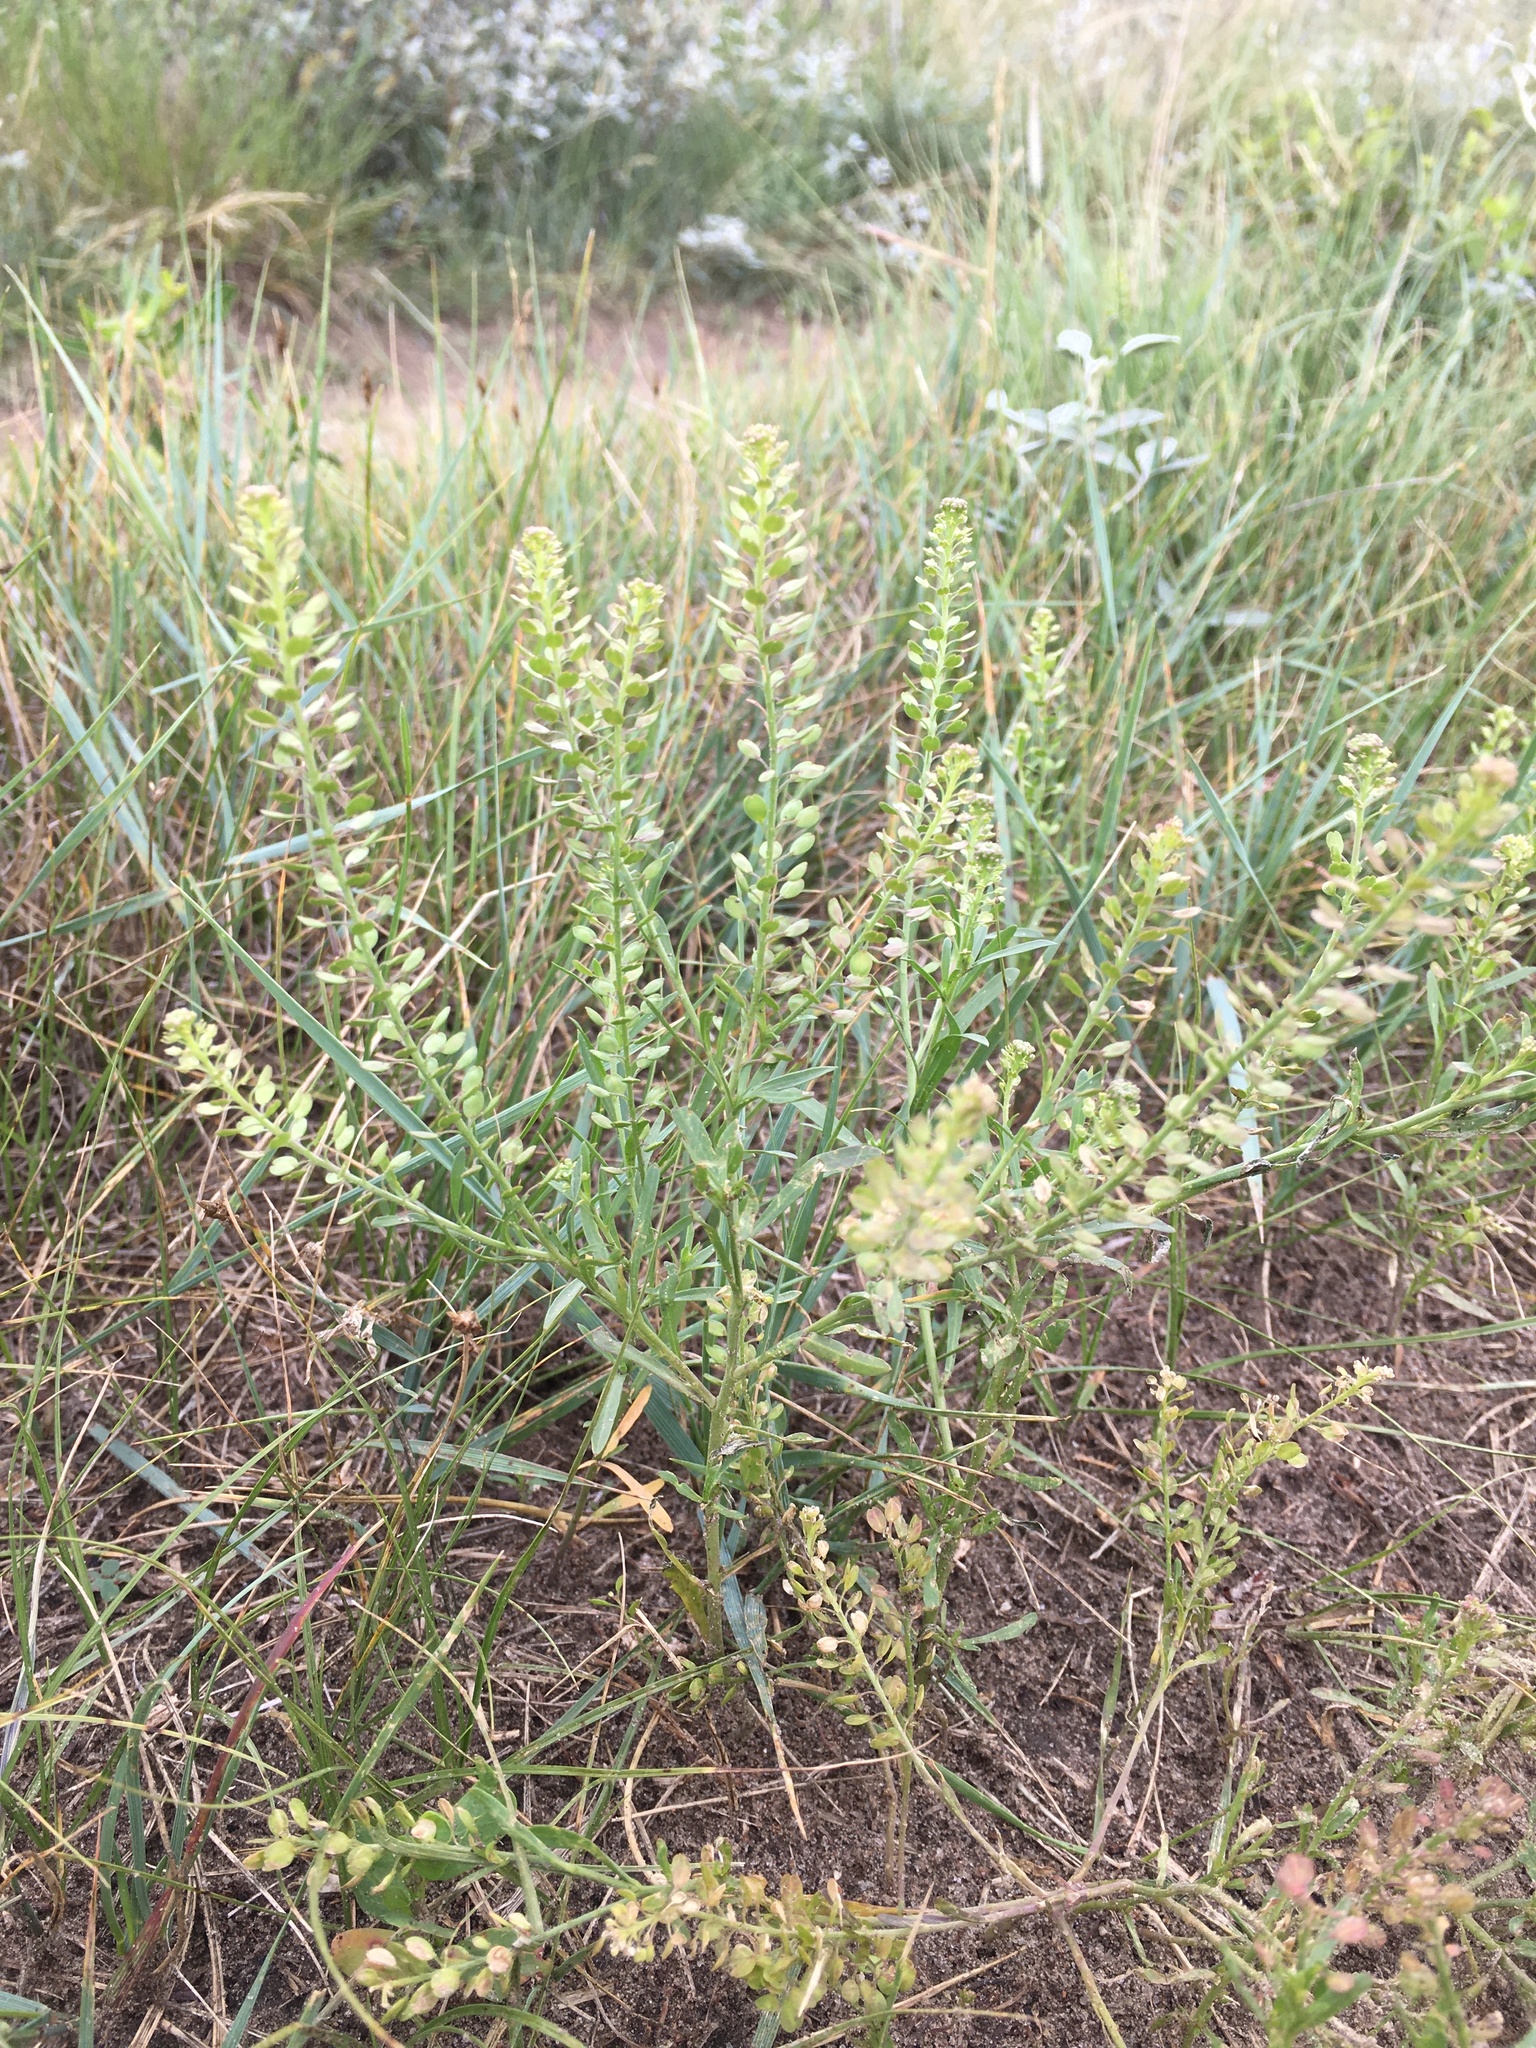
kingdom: Plantae
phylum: Tracheophyta
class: Magnoliopsida
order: Brassicales
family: Brassicaceae
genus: Lepidium
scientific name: Lepidium densiflorum
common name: Miner's pepperwort
